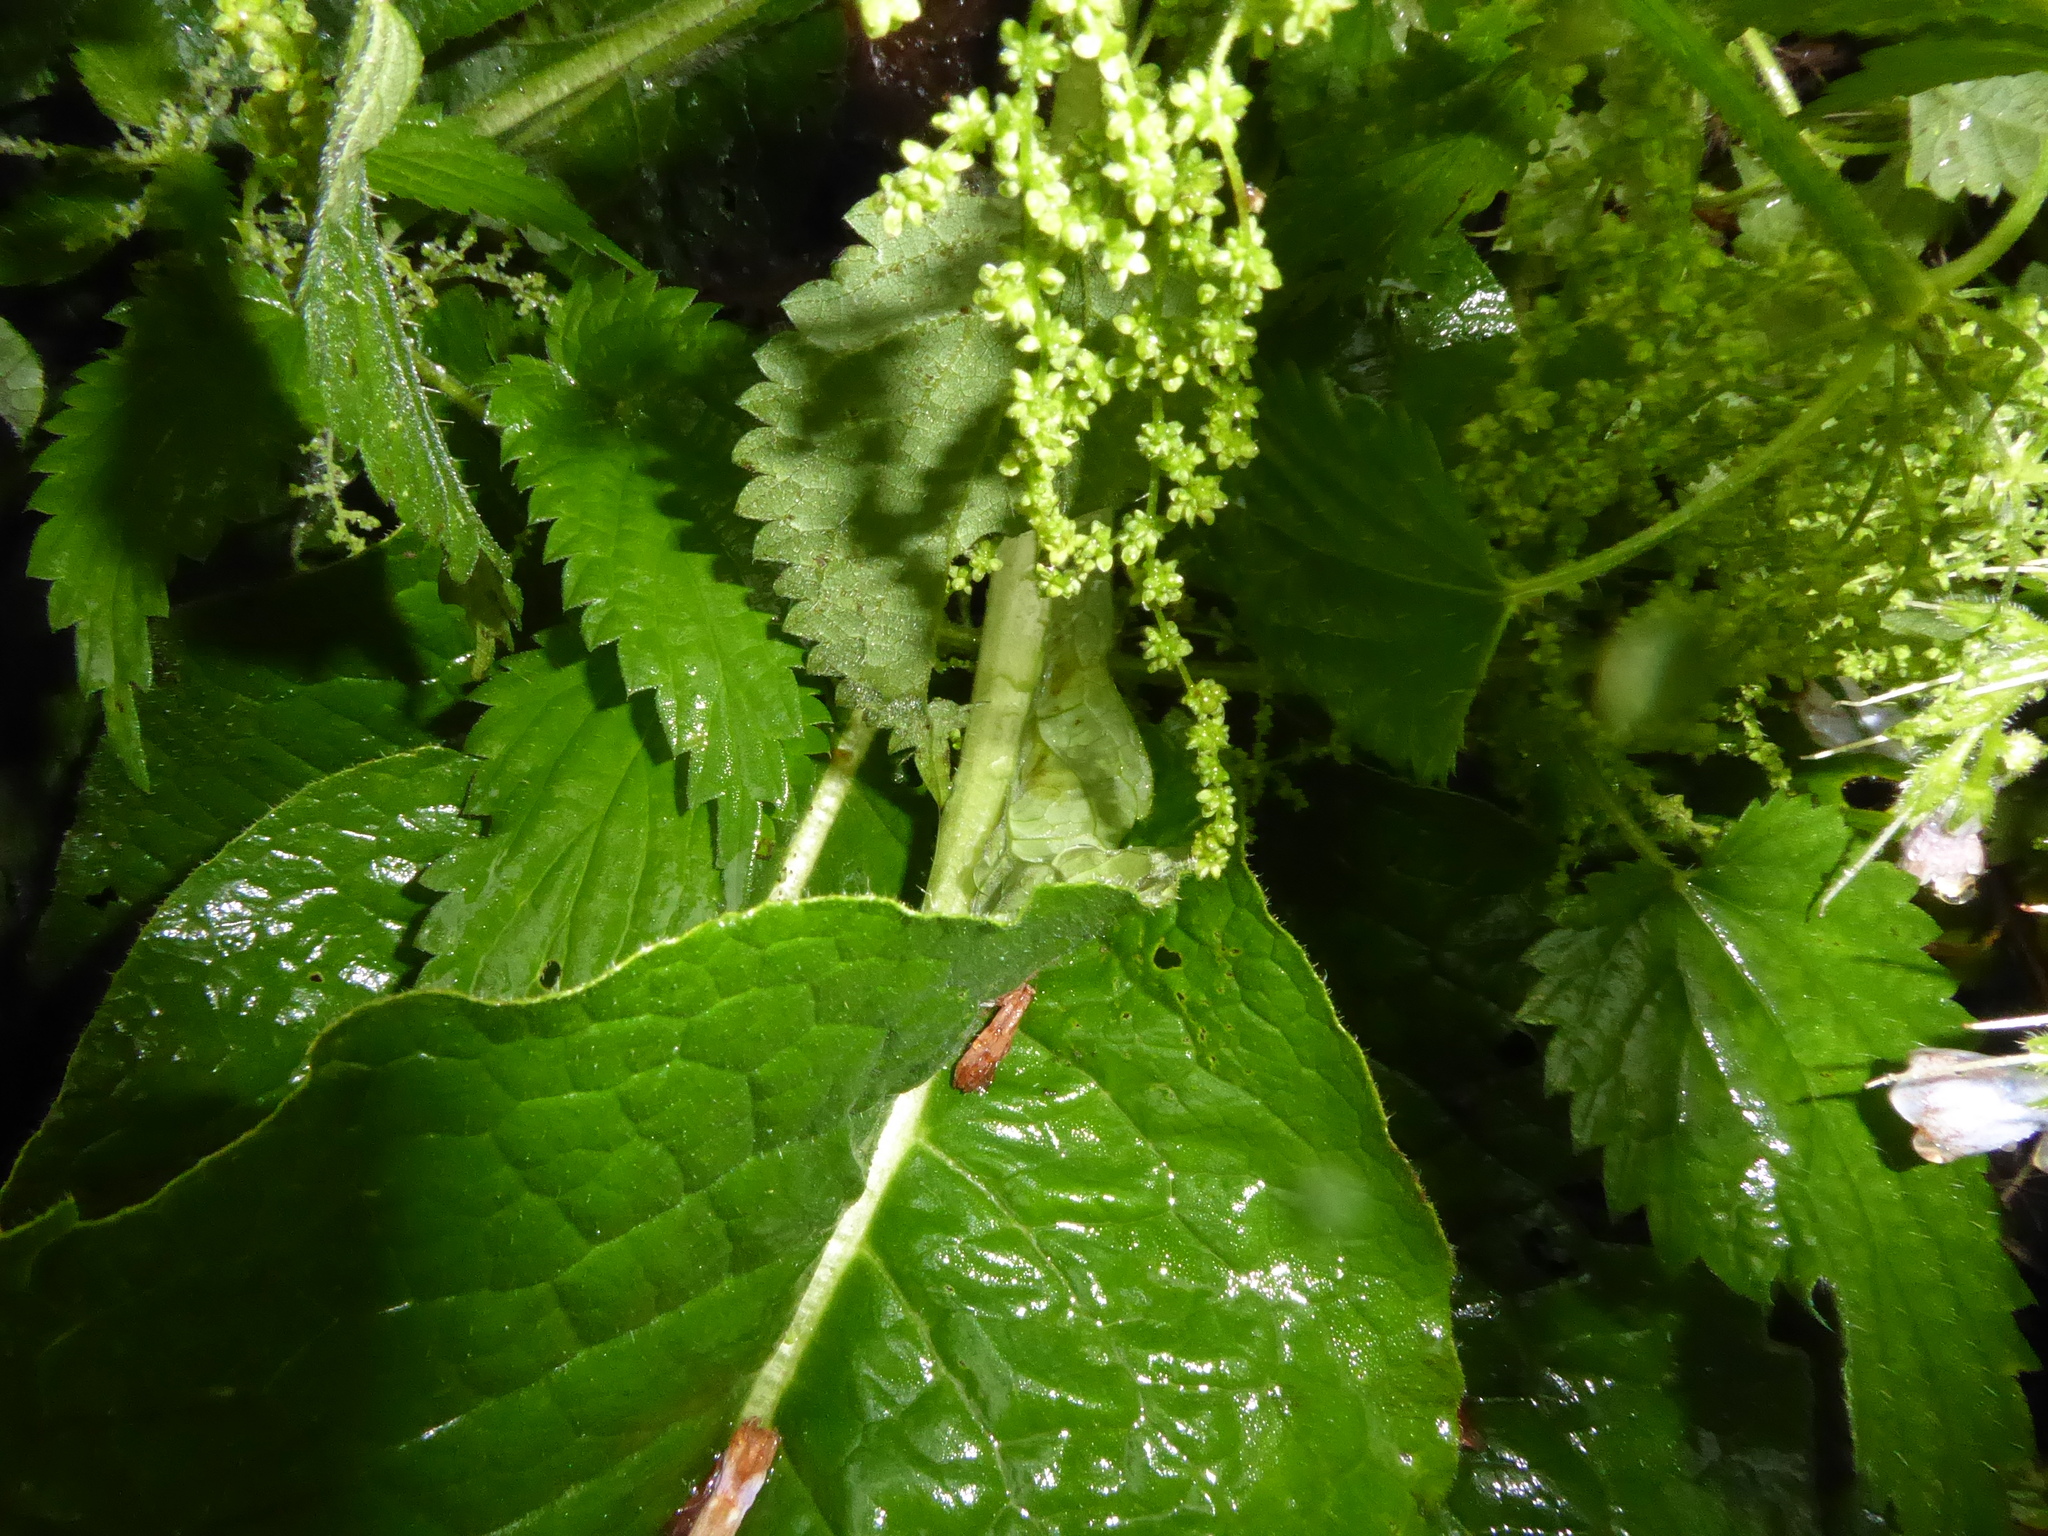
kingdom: Plantae
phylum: Tracheophyta
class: Magnoliopsida
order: Boraginales
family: Boraginaceae
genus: Symphytum
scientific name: Symphytum uplandicum
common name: Russian comfrey
